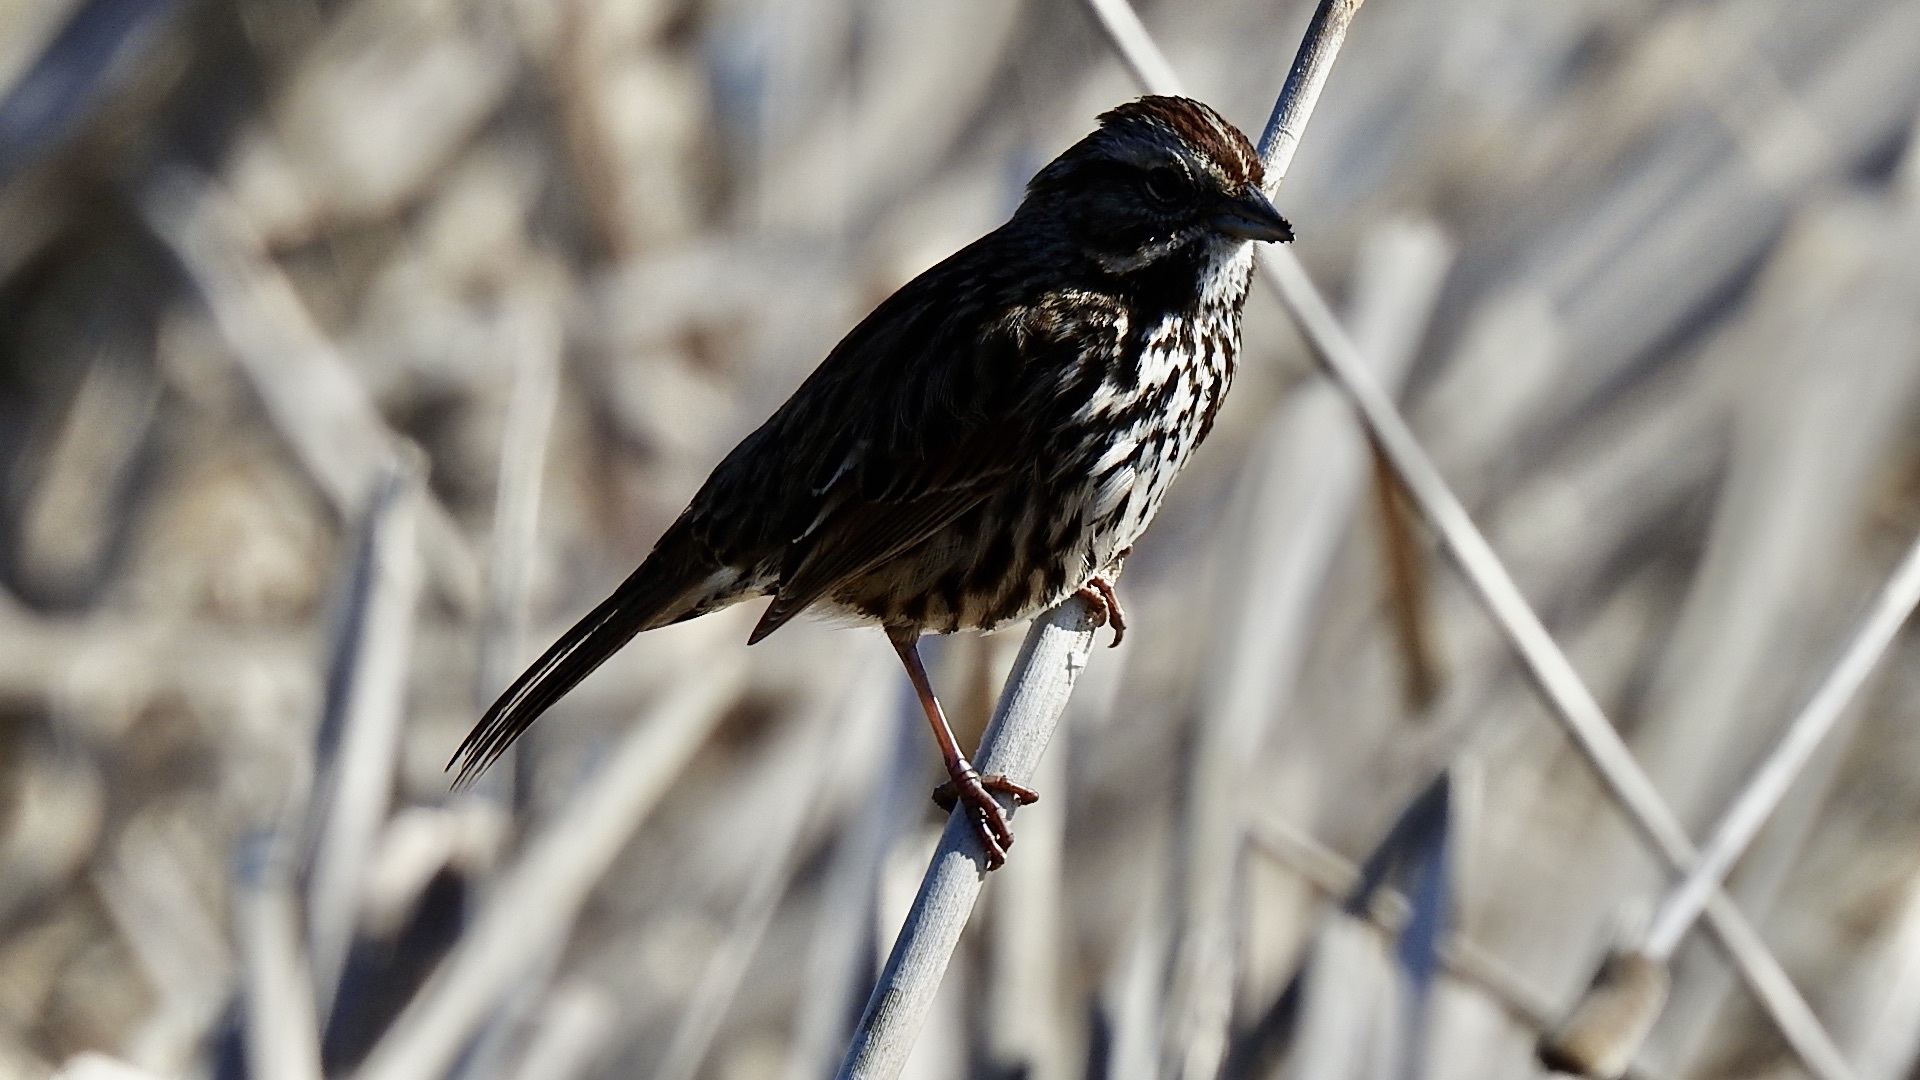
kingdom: Animalia
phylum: Chordata
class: Aves
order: Passeriformes
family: Passerellidae
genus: Melospiza
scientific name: Melospiza melodia
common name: Song sparrow
